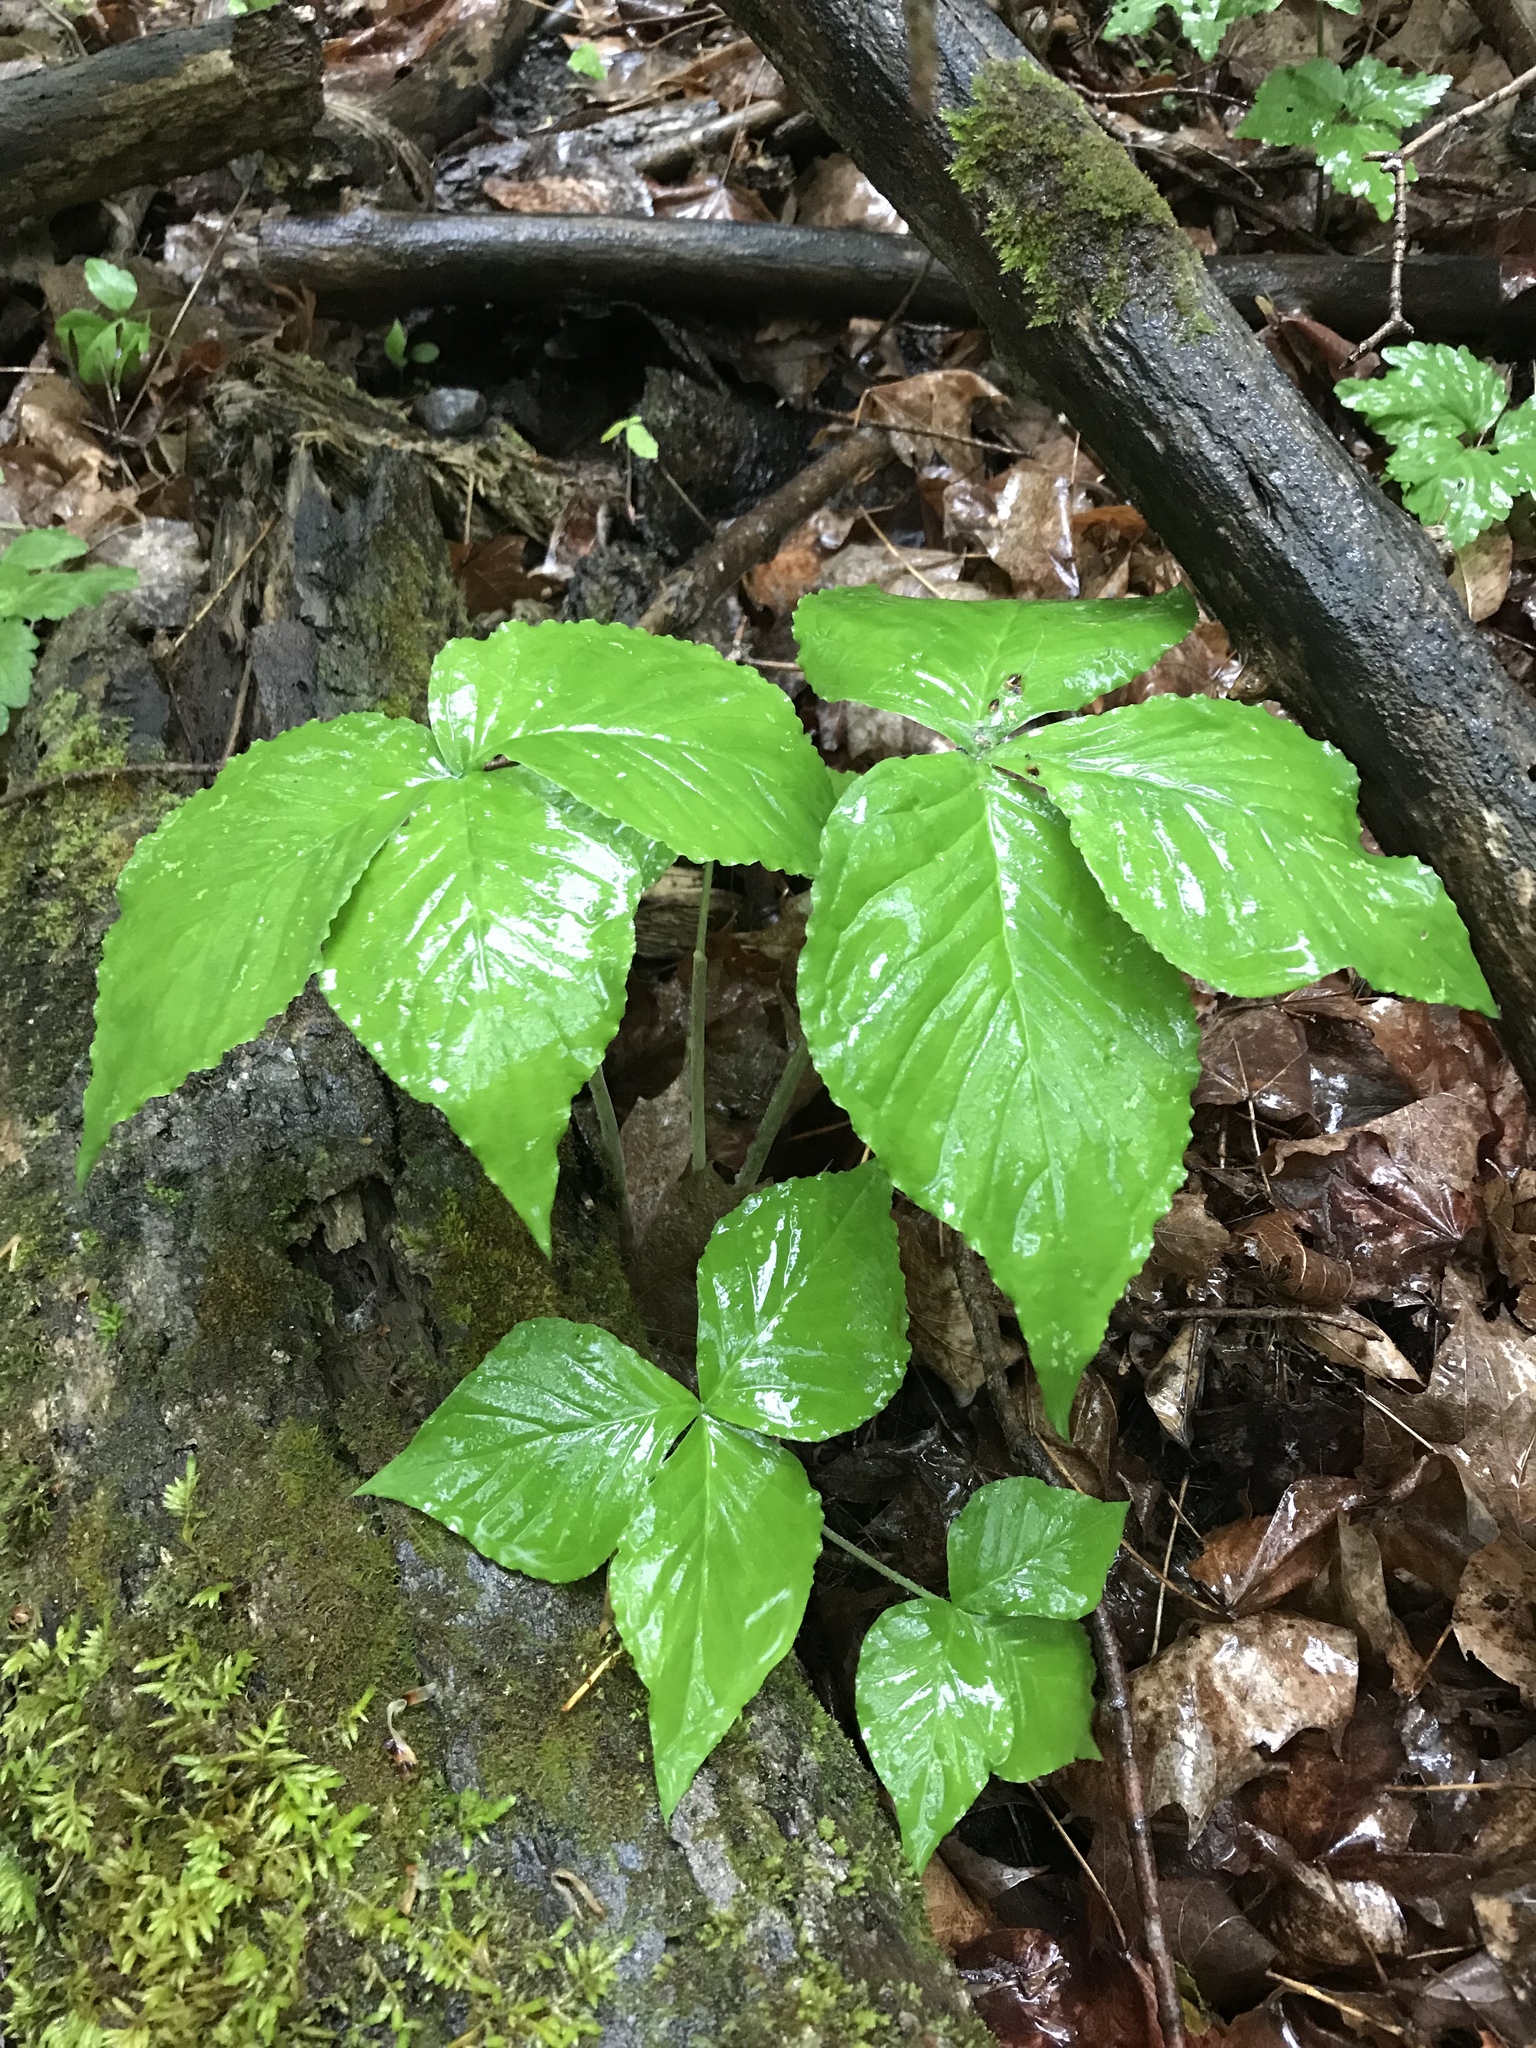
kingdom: Plantae
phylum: Tracheophyta
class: Liliopsida
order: Alismatales
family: Araceae
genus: Arisaema
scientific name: Arisaema triphyllum
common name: Jack-in-the-pulpit
